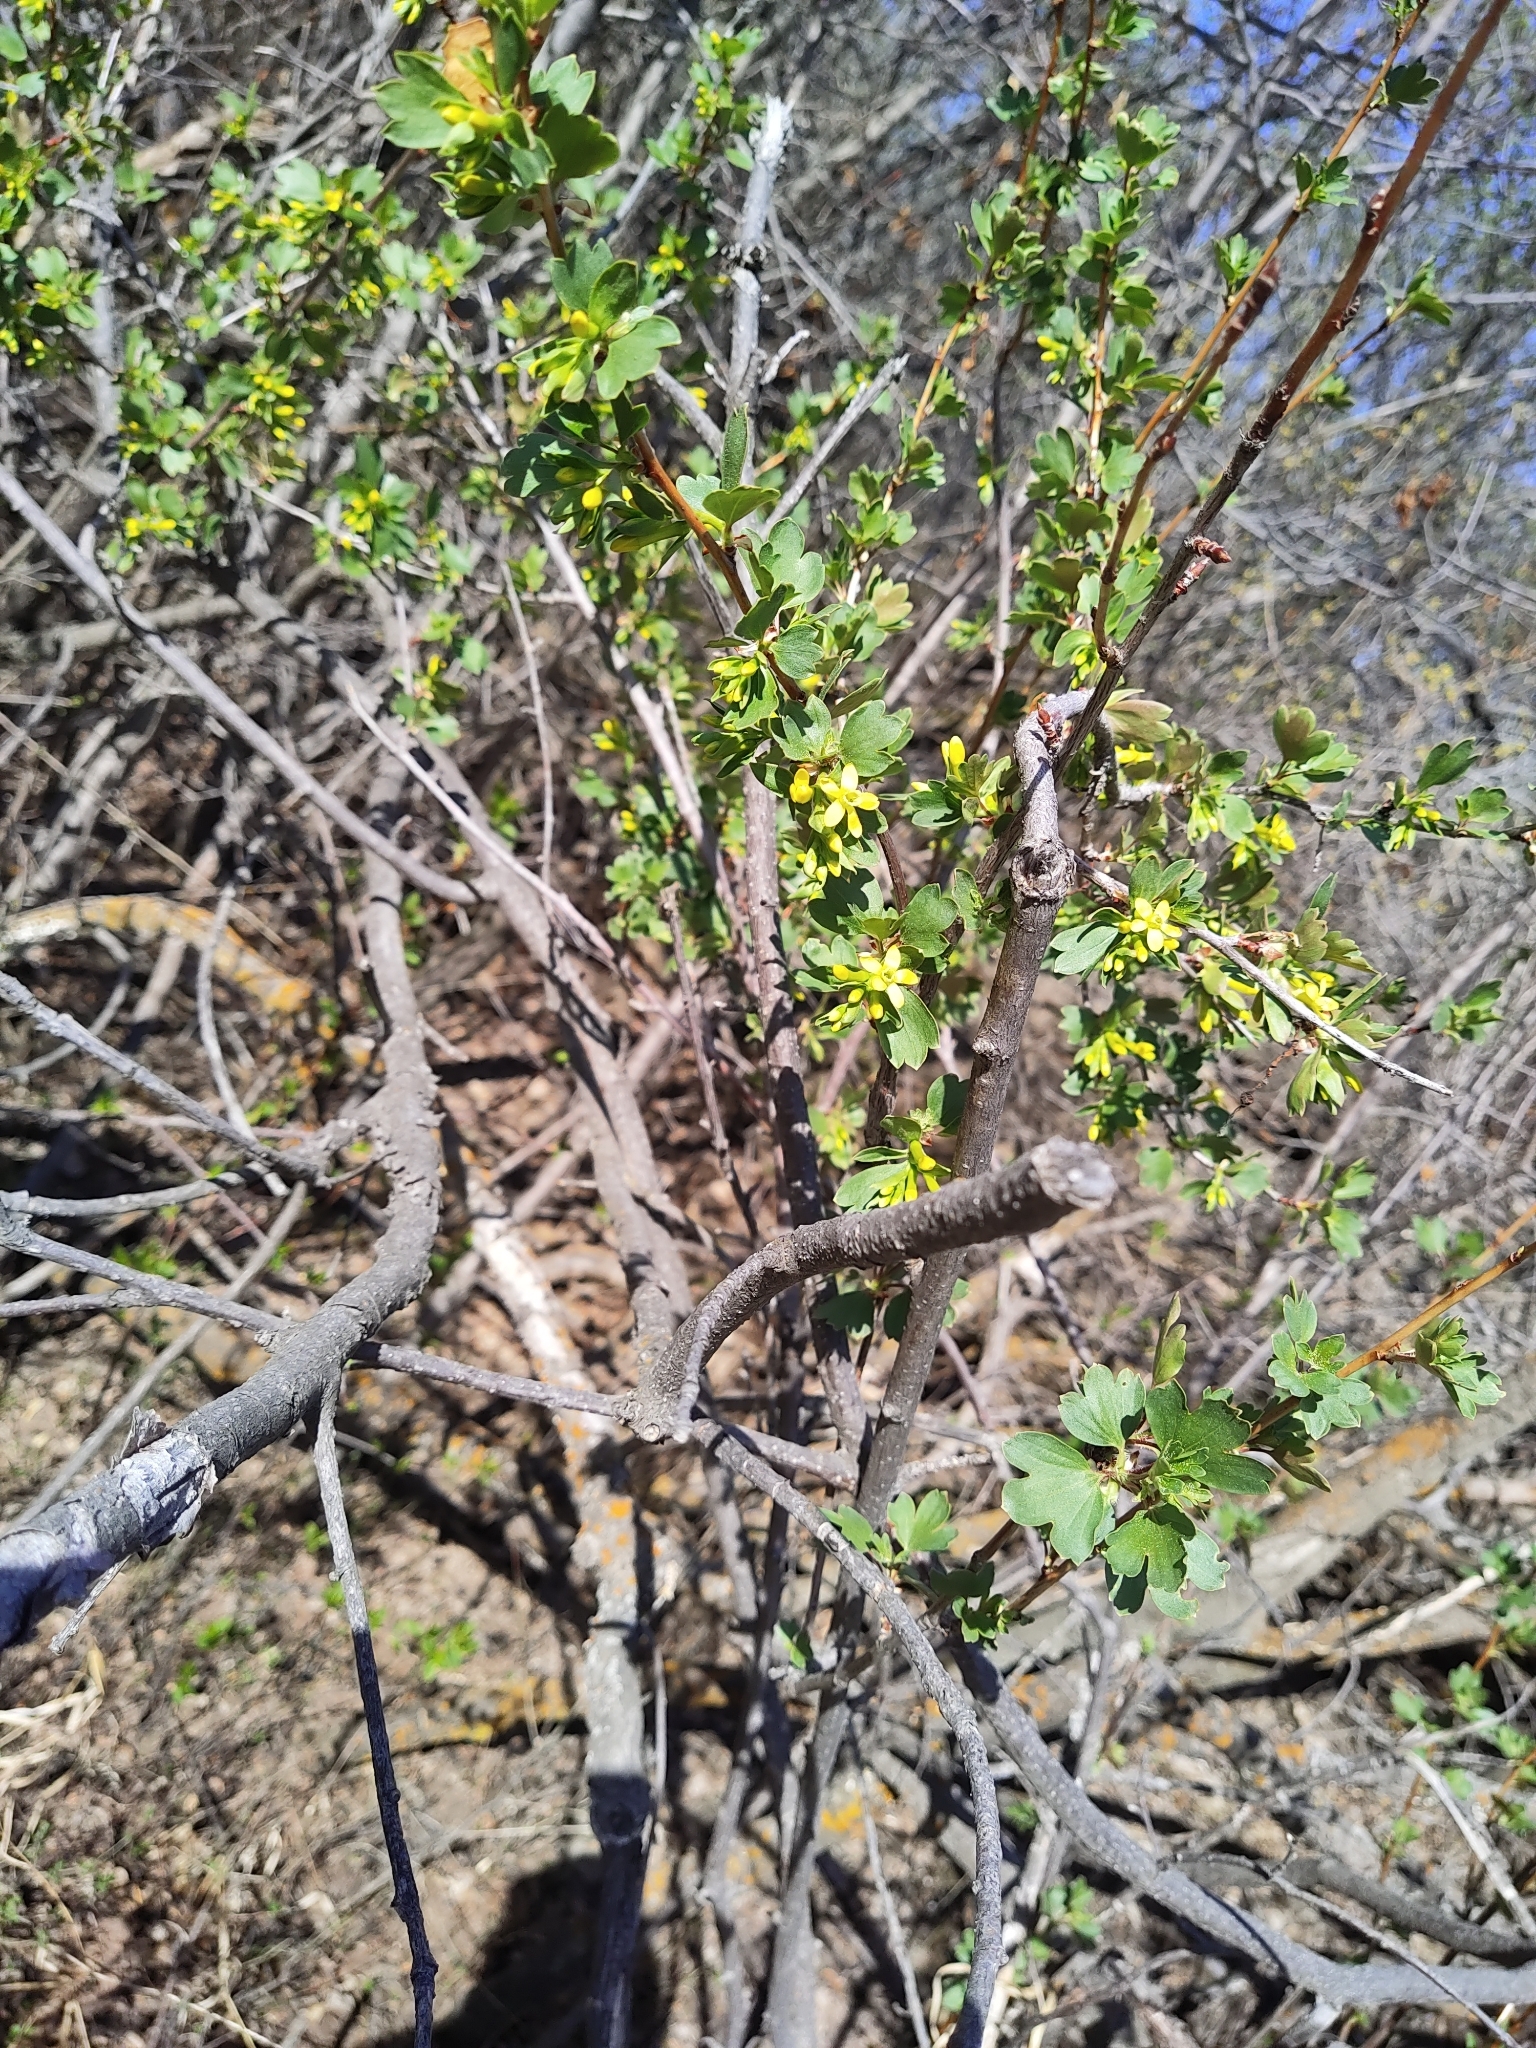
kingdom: Plantae
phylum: Tracheophyta
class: Magnoliopsida
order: Saxifragales
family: Grossulariaceae
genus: Ribes
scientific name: Ribes aureum
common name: Golden currant
